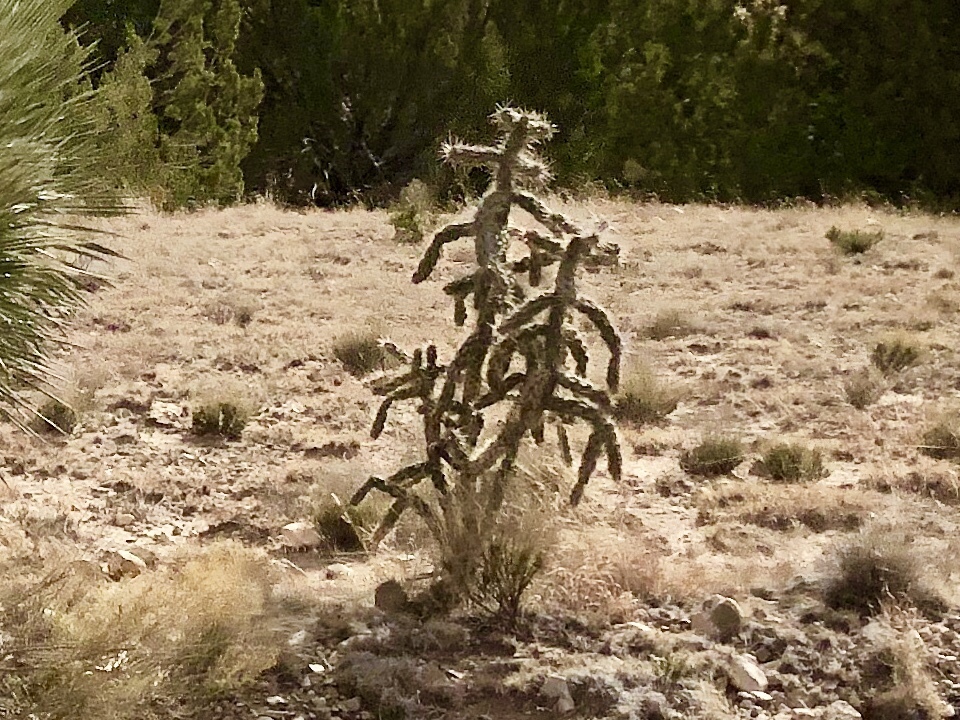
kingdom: Plantae
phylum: Tracheophyta
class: Magnoliopsida
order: Caryophyllales
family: Cactaceae
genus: Cylindropuntia
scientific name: Cylindropuntia imbricata
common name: Candelabrum cactus
